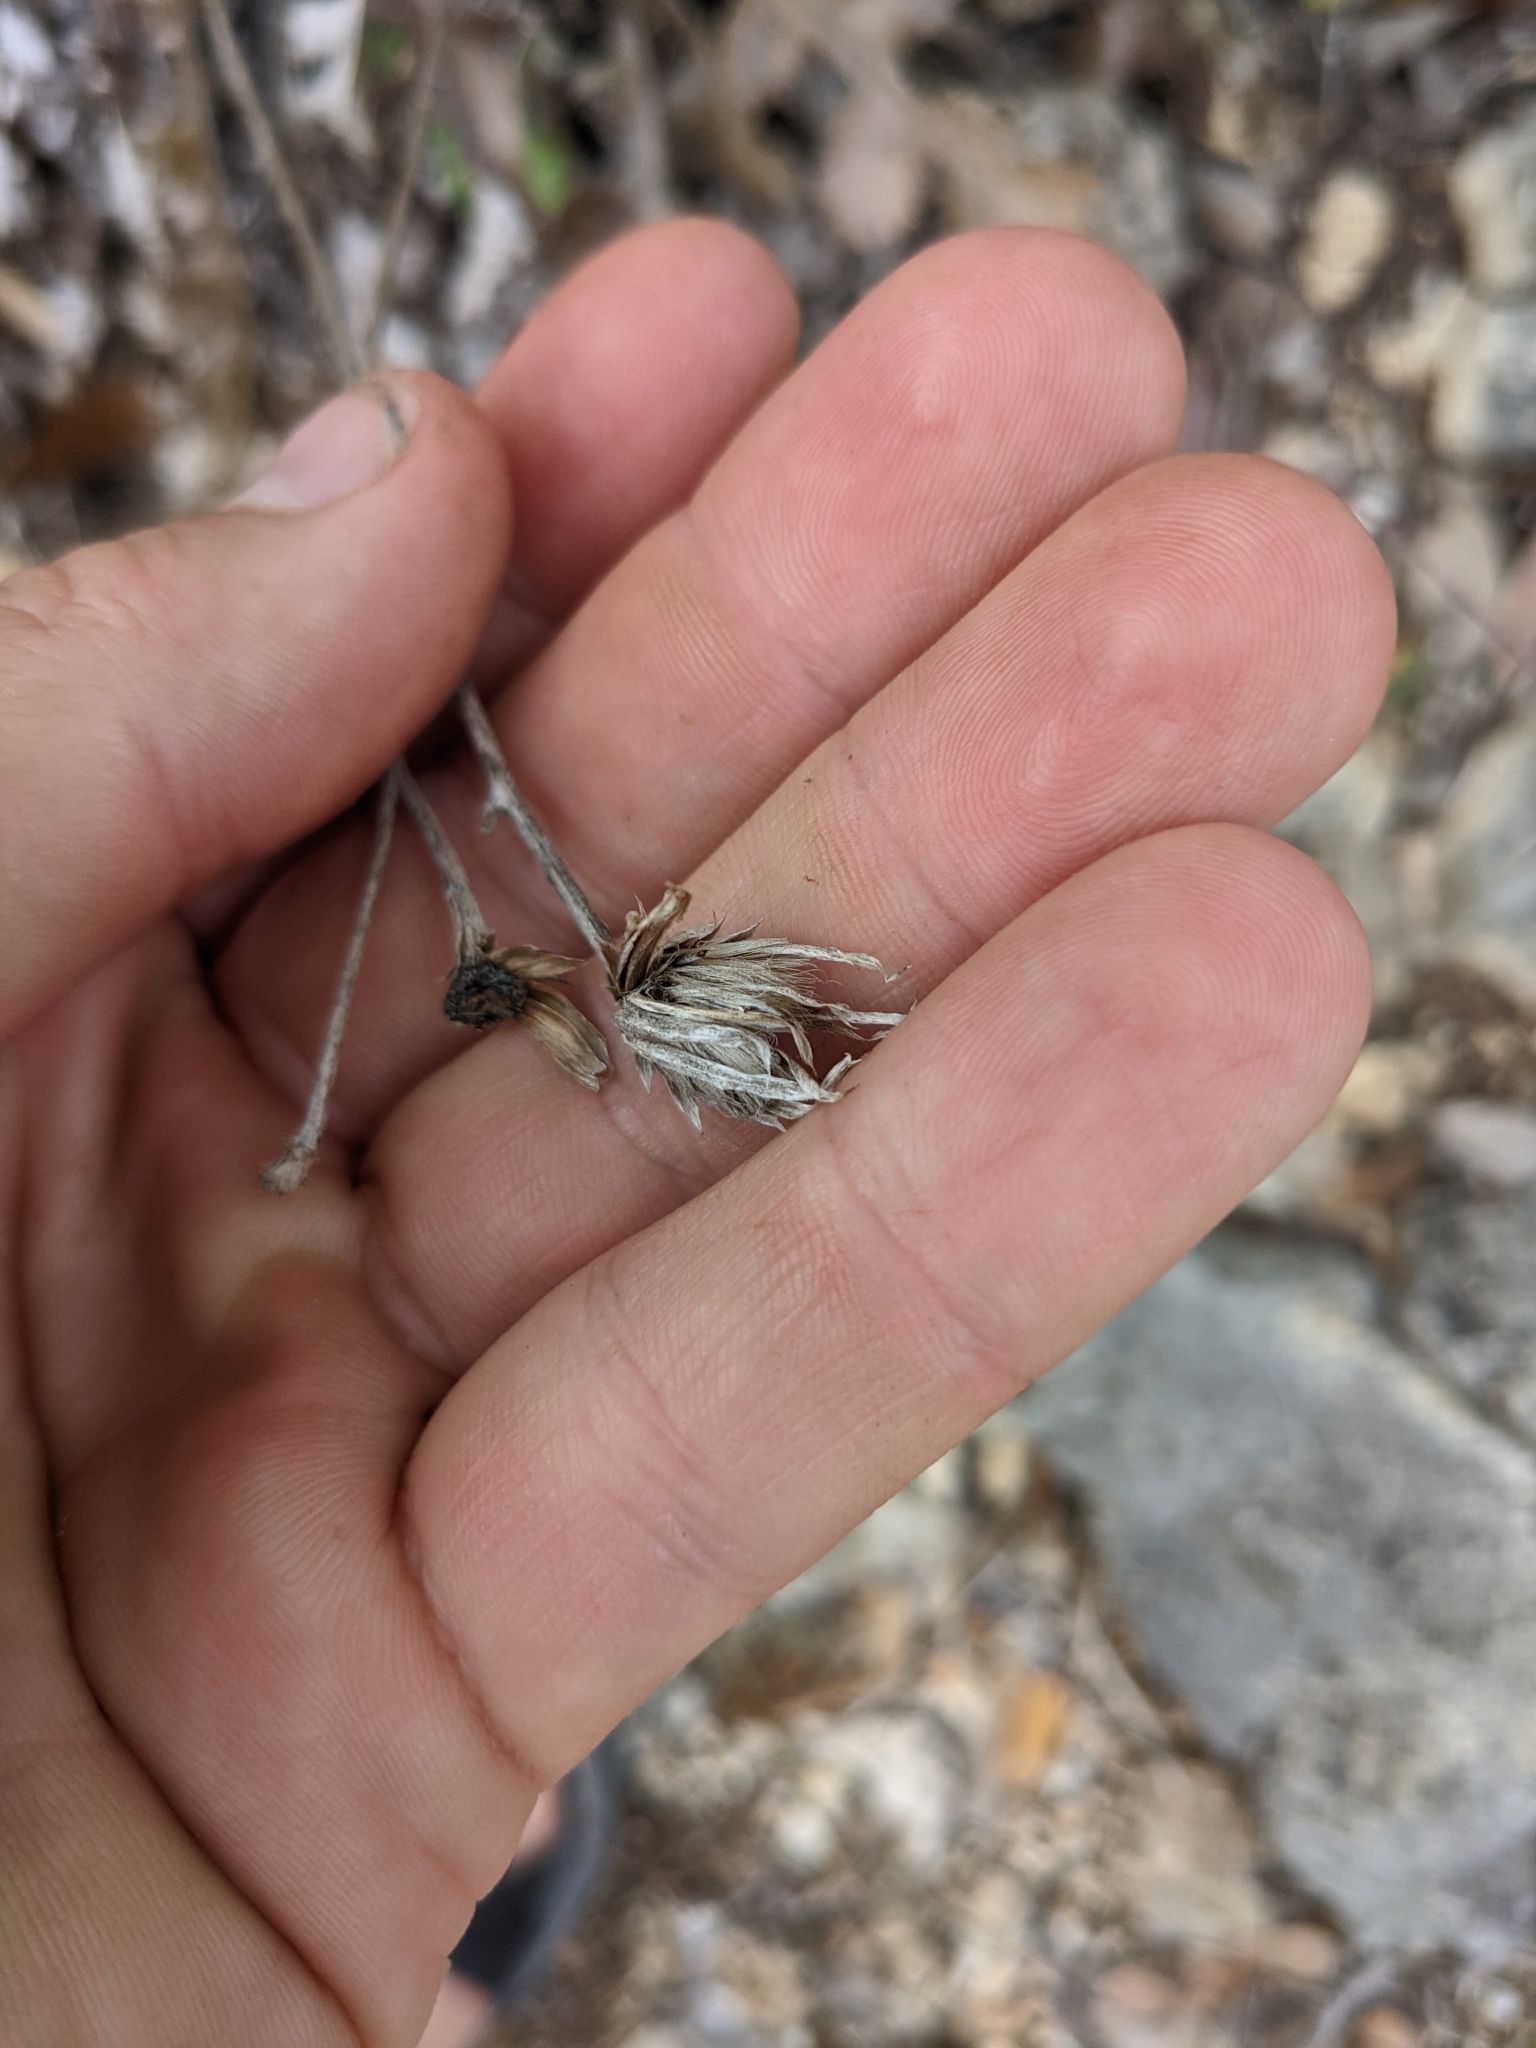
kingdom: Plantae
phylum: Tracheophyta
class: Magnoliopsida
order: Asterales
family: Asteraceae
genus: Acourtia
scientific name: Acourtia runcinata
